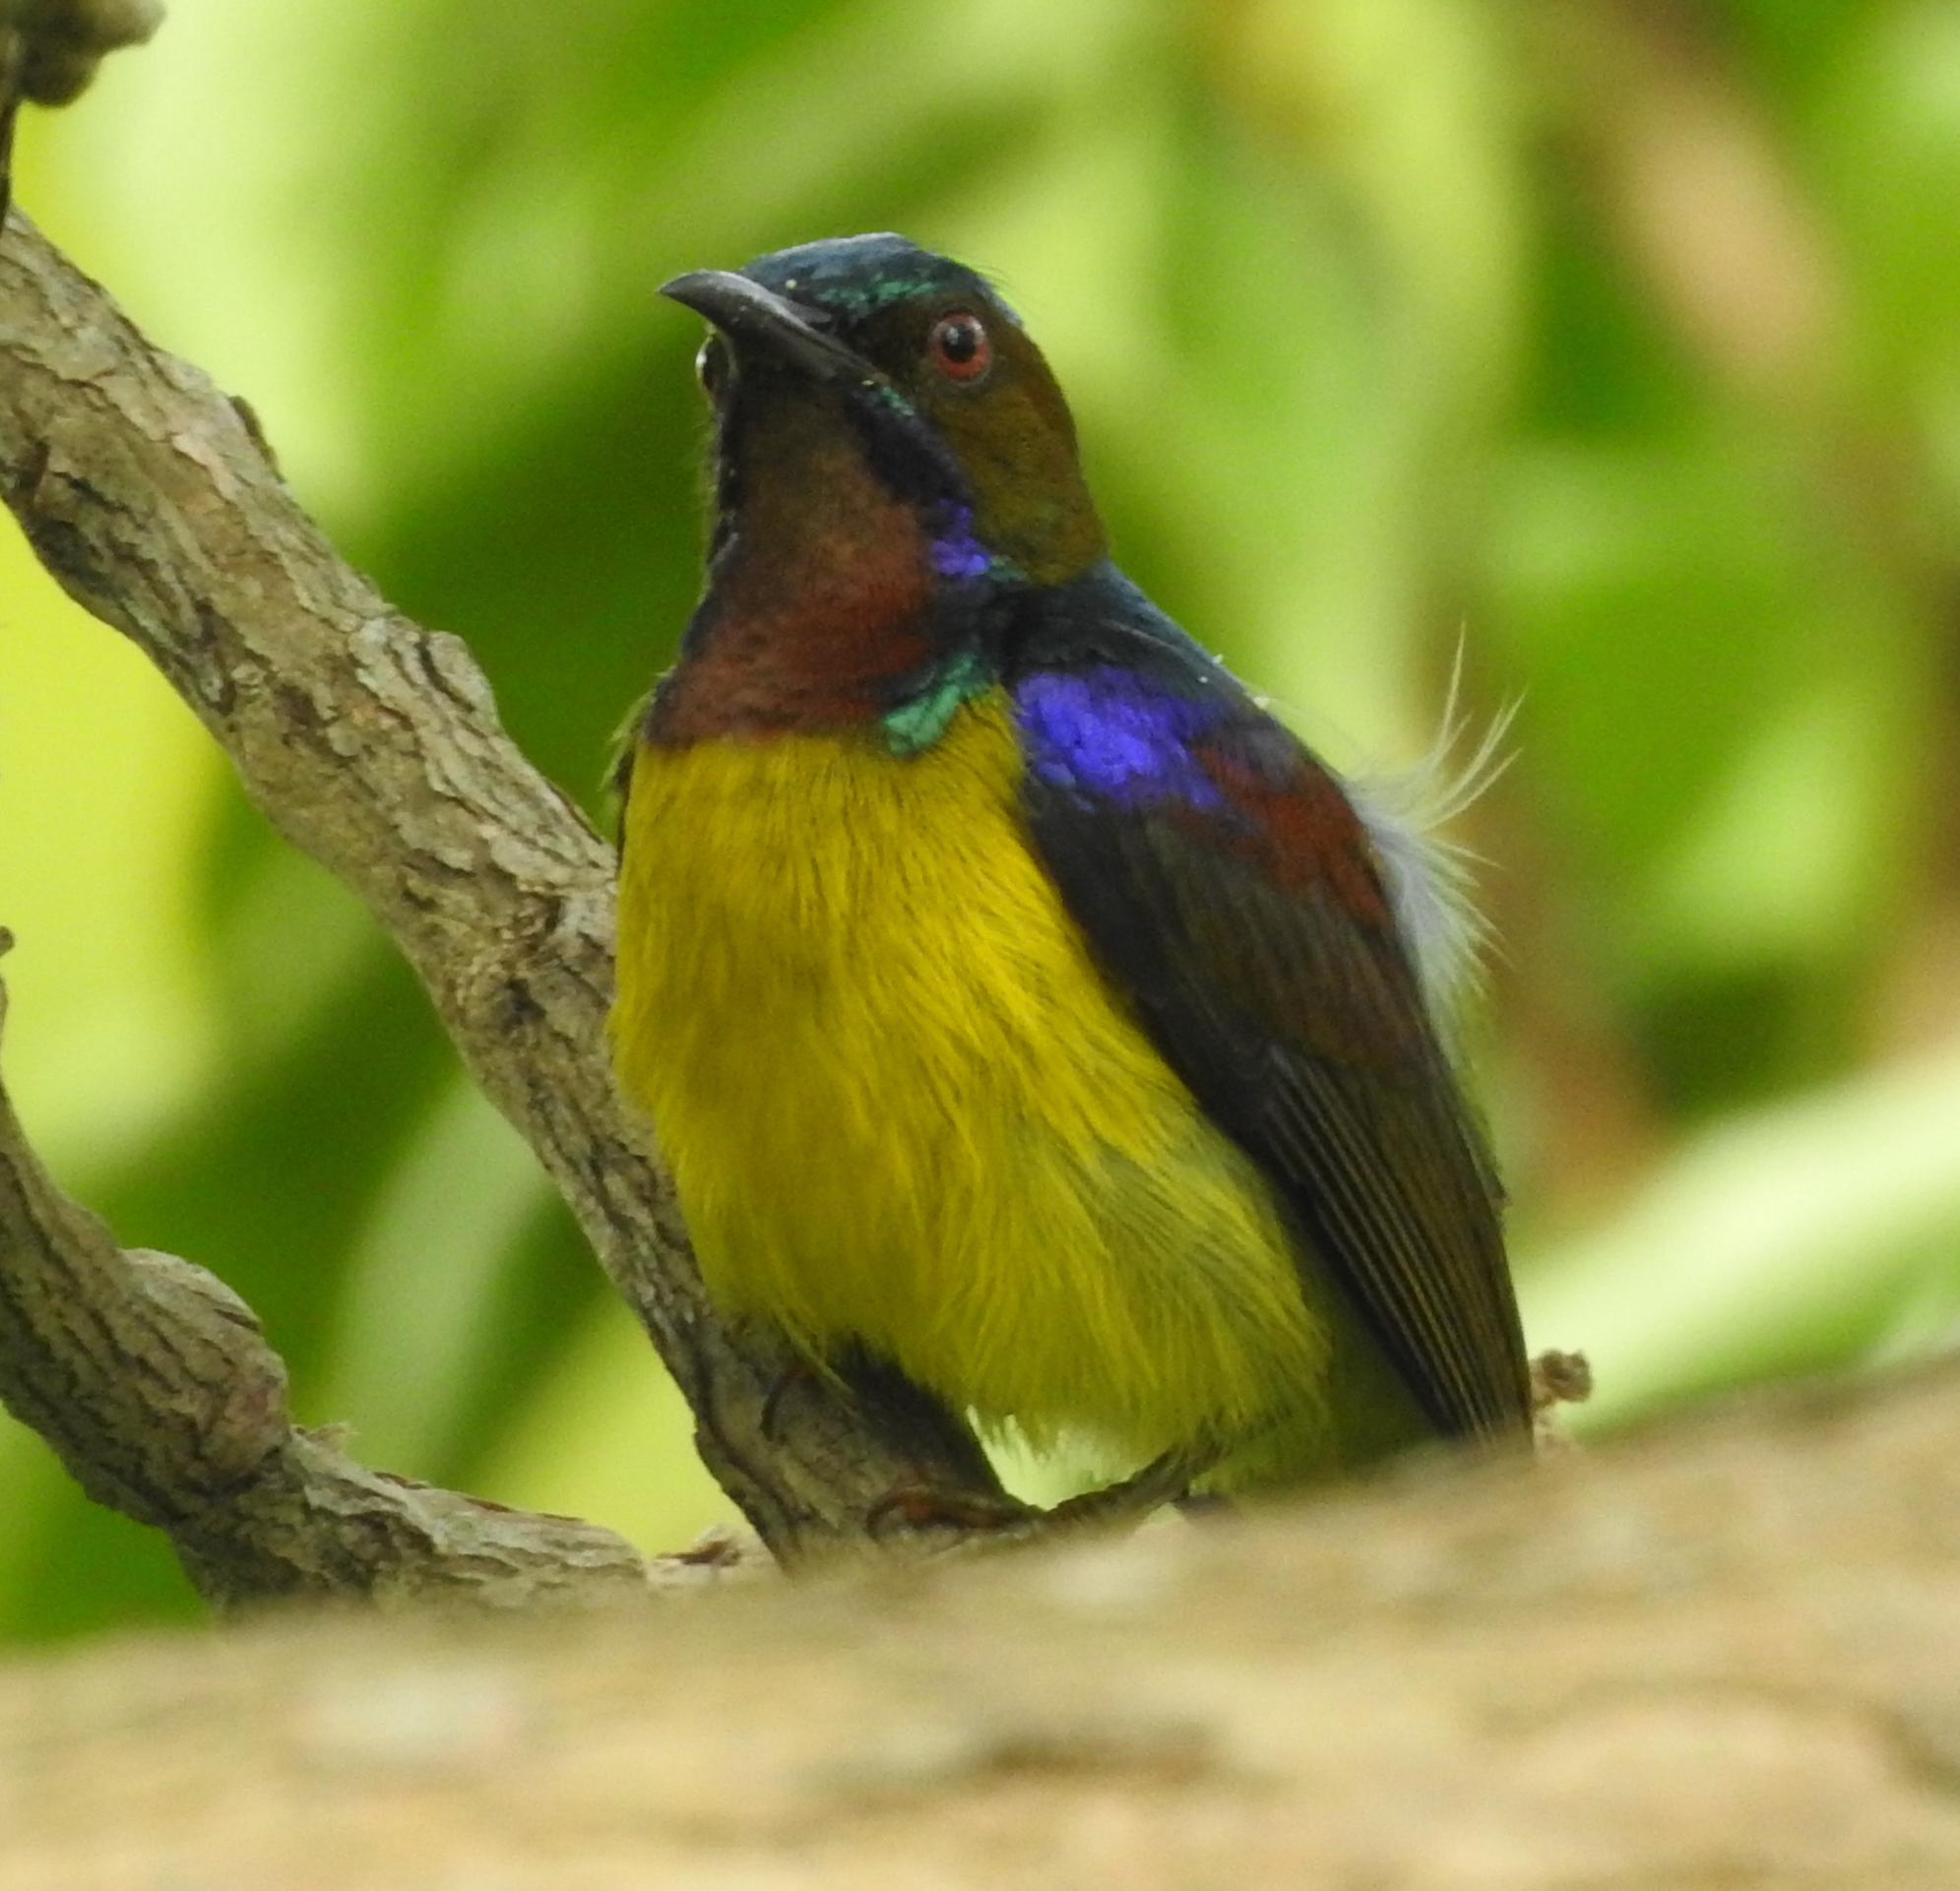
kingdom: Animalia
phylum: Chordata
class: Aves
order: Passeriformes
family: Nectariniidae
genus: Anthreptes
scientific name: Anthreptes malacensis
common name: Brown-throated sunbird
